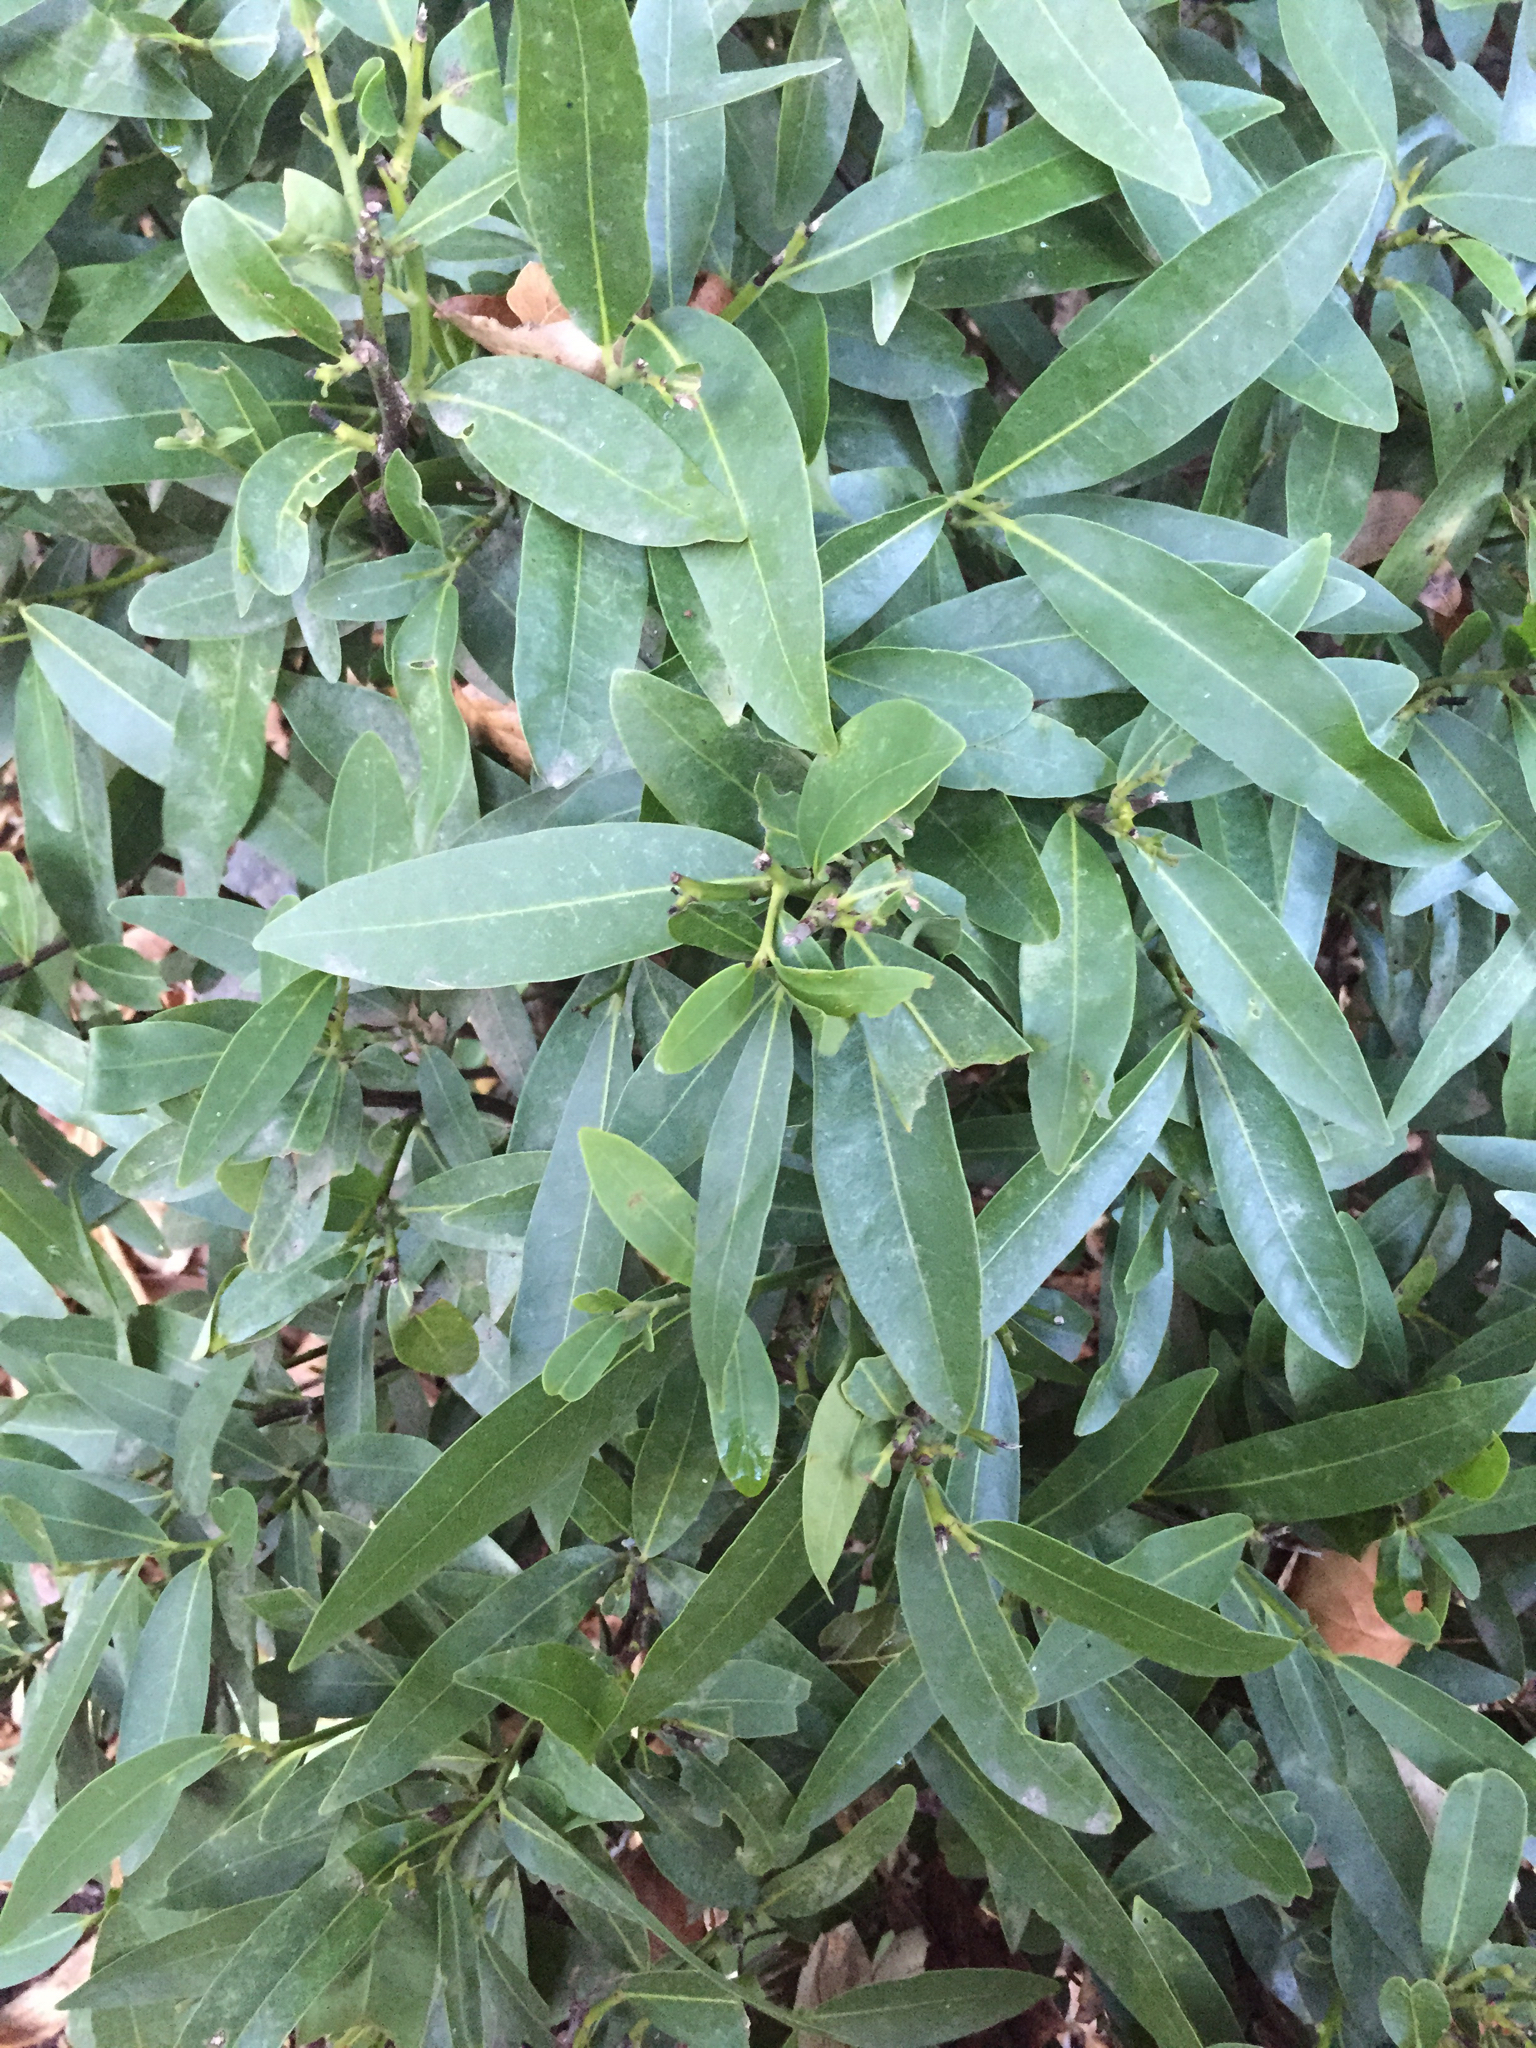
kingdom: Plantae
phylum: Tracheophyta
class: Magnoliopsida
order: Laurales
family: Lauraceae
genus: Umbellularia
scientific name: Umbellularia californica
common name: California bay
